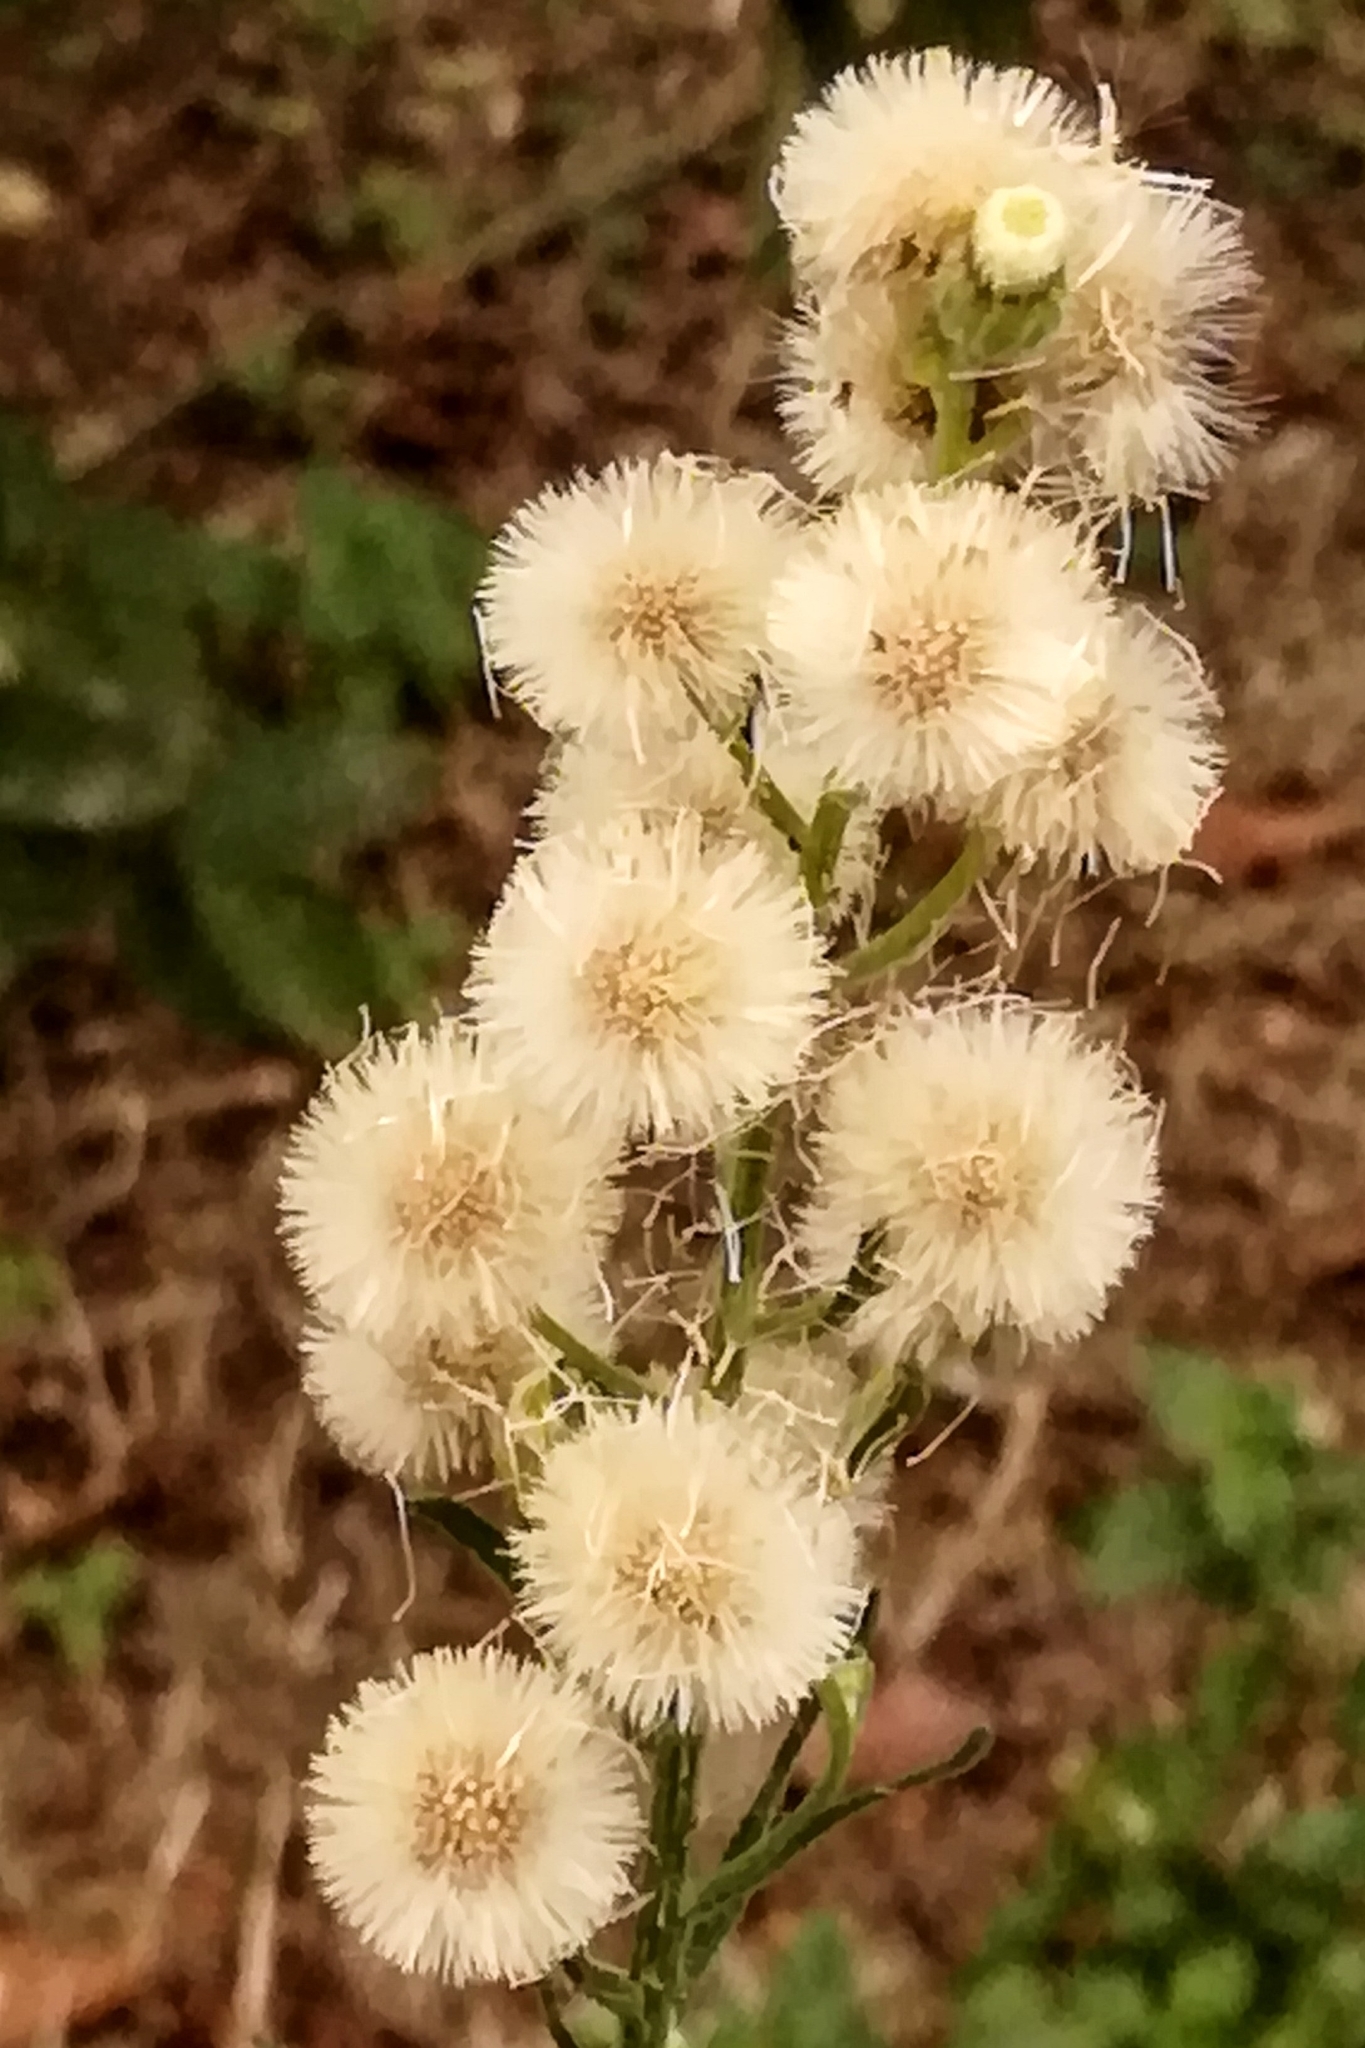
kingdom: Plantae
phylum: Tracheophyta
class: Magnoliopsida
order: Asterales
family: Asteraceae
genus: Erigeron
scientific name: Erigeron bonariensis
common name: Argentine fleabane
